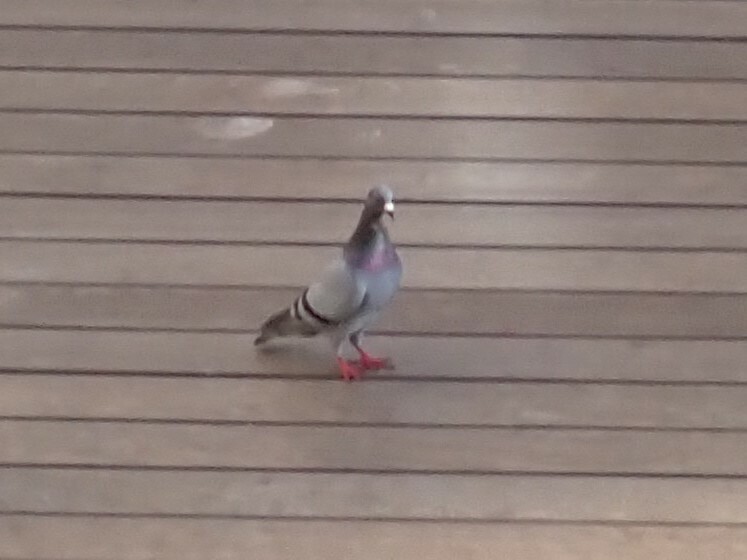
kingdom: Animalia
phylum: Chordata
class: Aves
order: Columbiformes
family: Columbidae
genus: Columba
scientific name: Columba livia
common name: Rock pigeon
